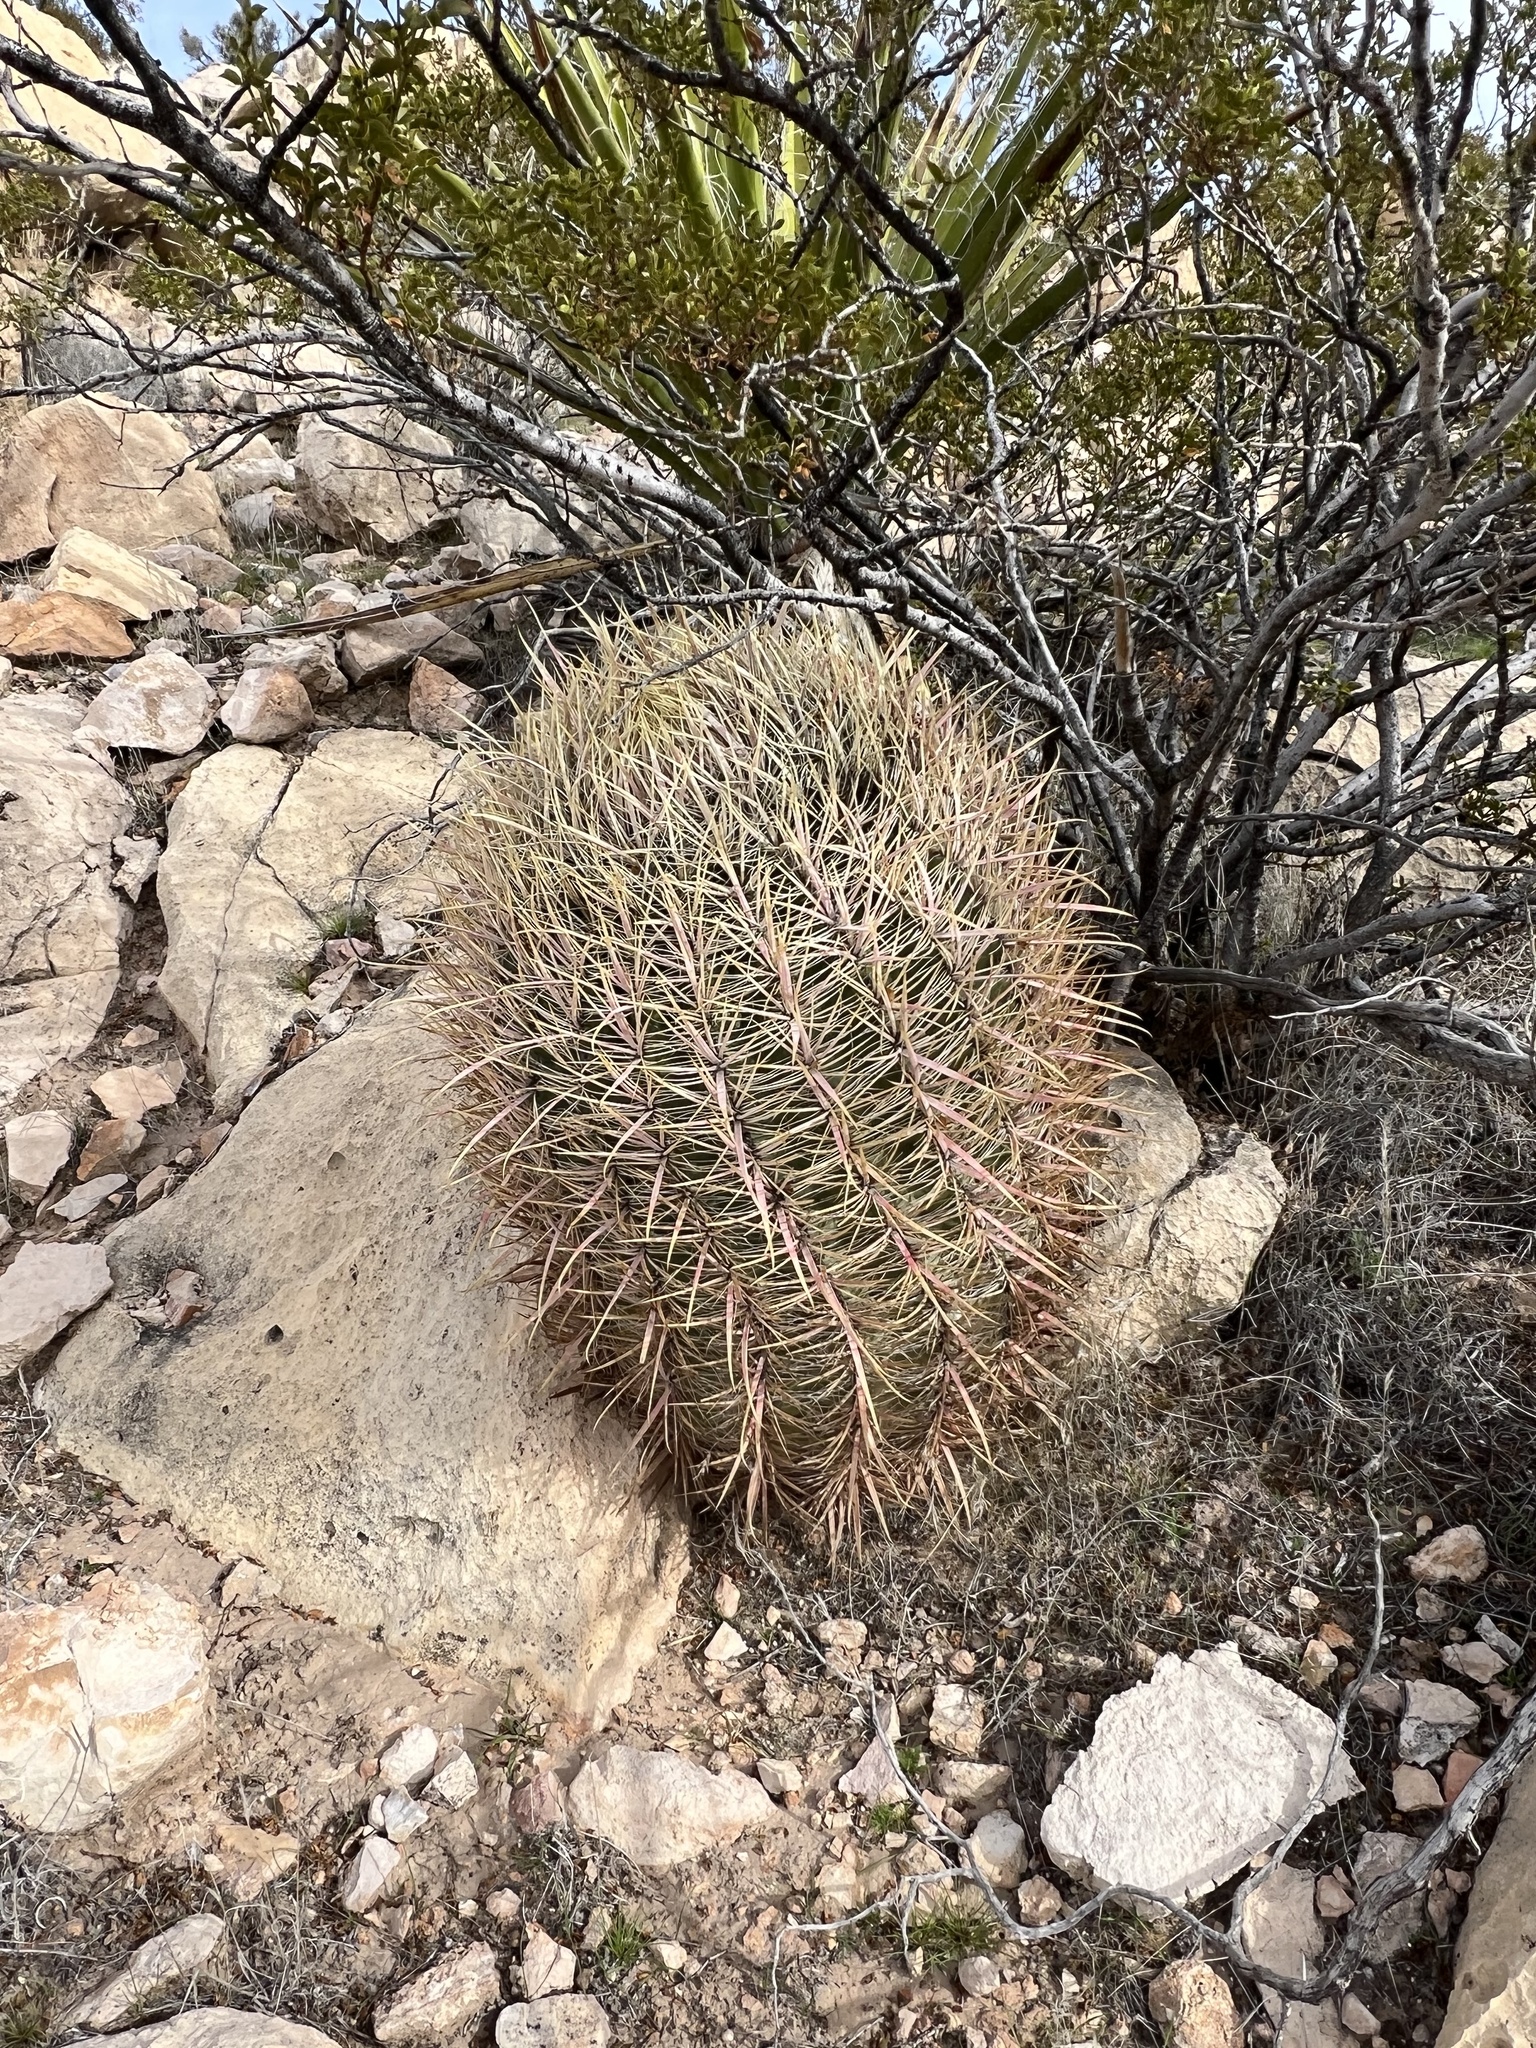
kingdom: Plantae
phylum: Tracheophyta
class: Magnoliopsida
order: Caryophyllales
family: Cactaceae
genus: Ferocactus
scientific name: Ferocactus cylindraceus
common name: California barrel cactus
